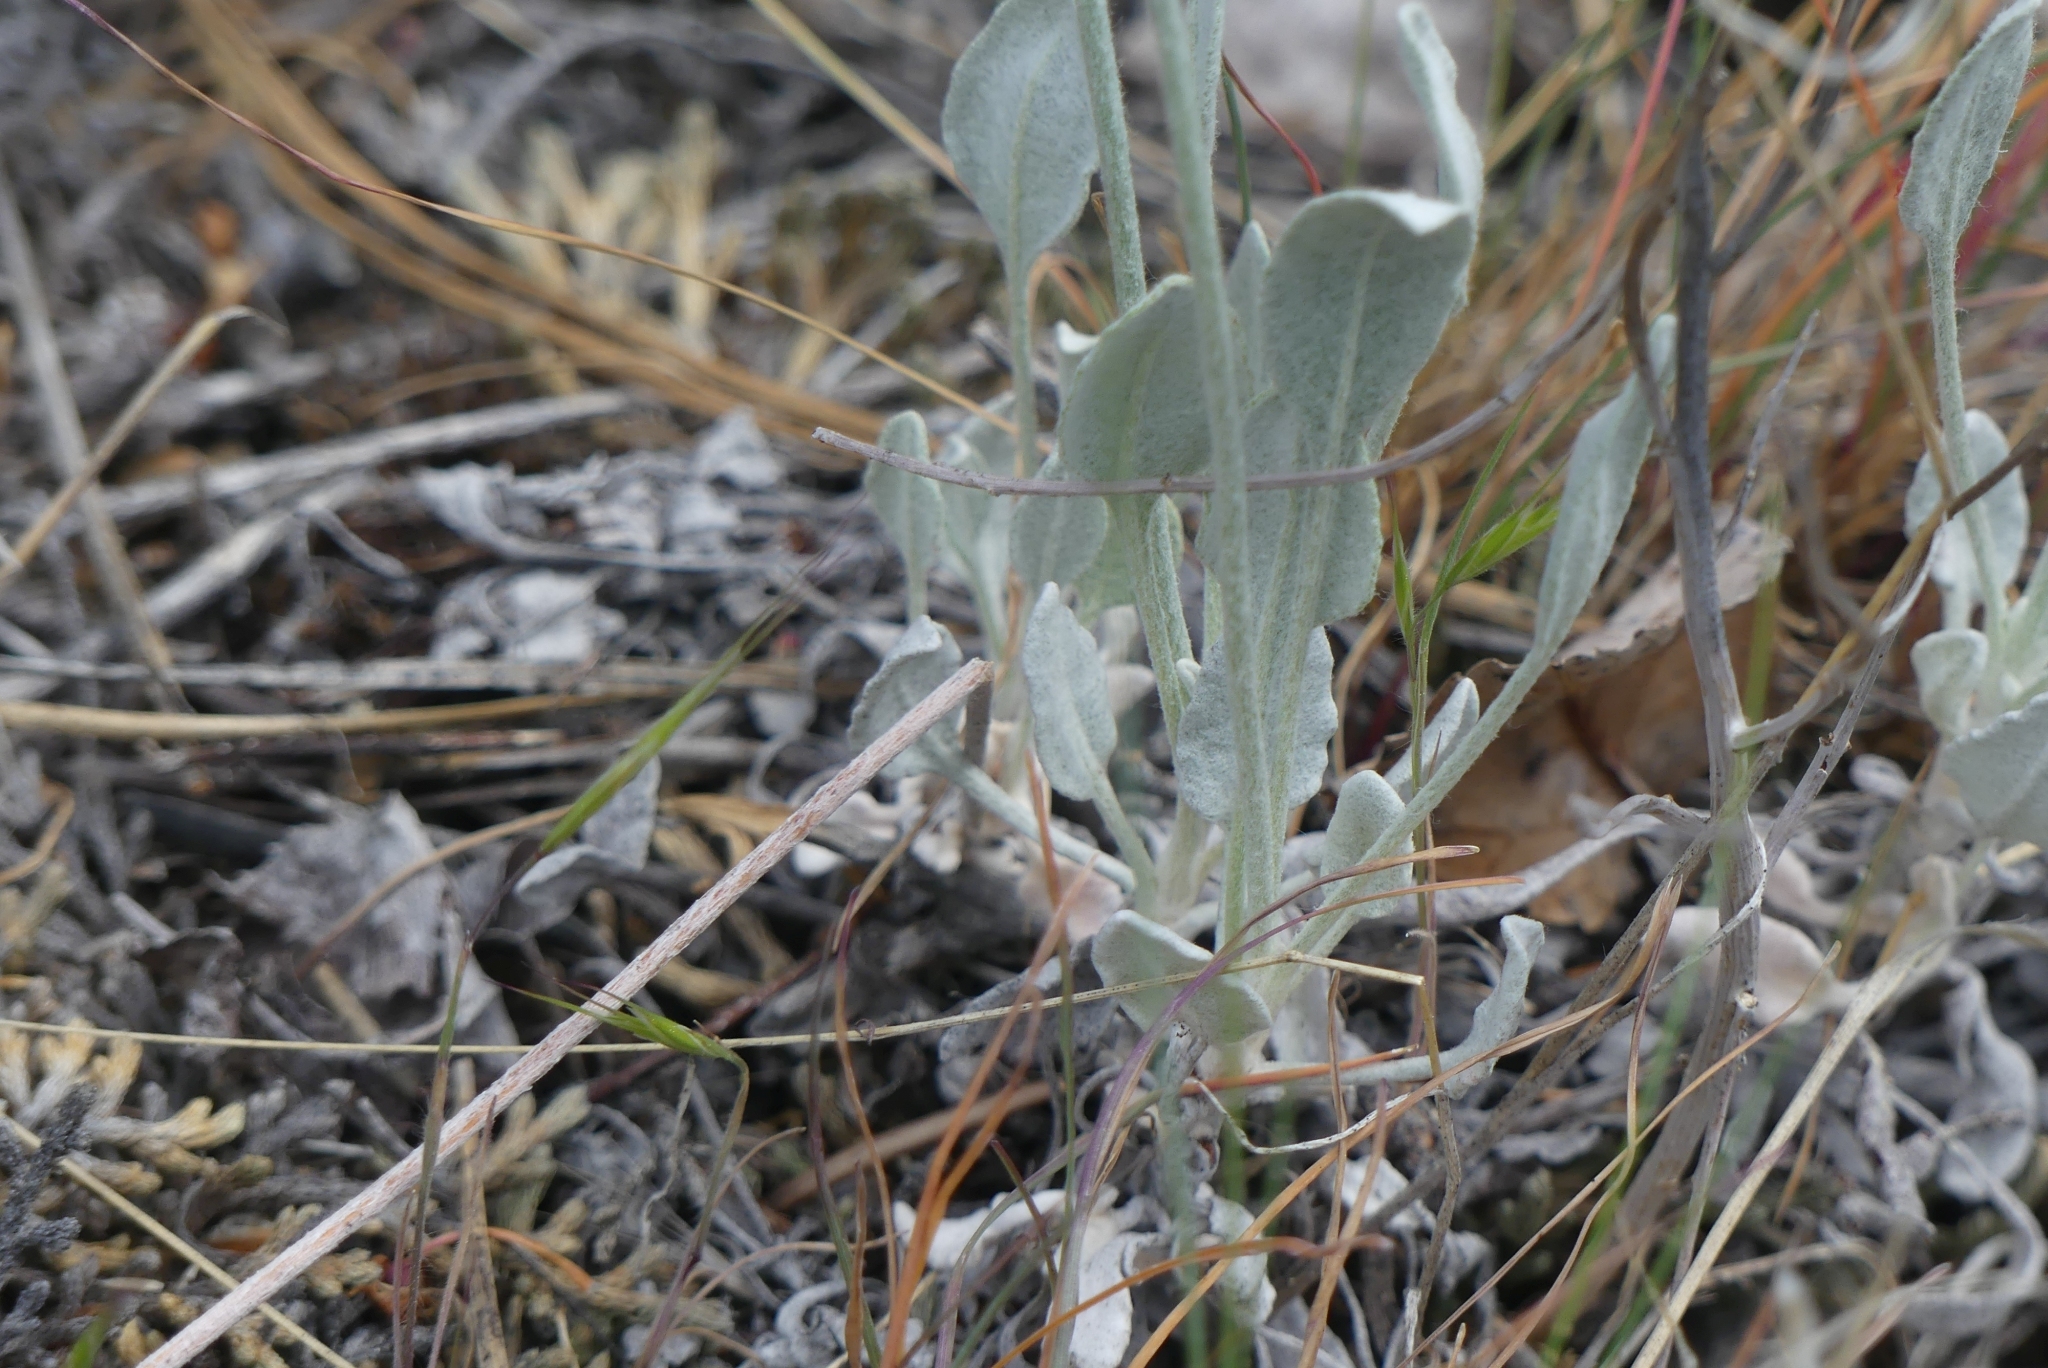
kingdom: Plantae
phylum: Tracheophyta
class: Magnoliopsida
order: Caryophyllales
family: Polygonaceae
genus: Eriogonum
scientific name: Eriogonum niveum
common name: Snow wild buckwheat
